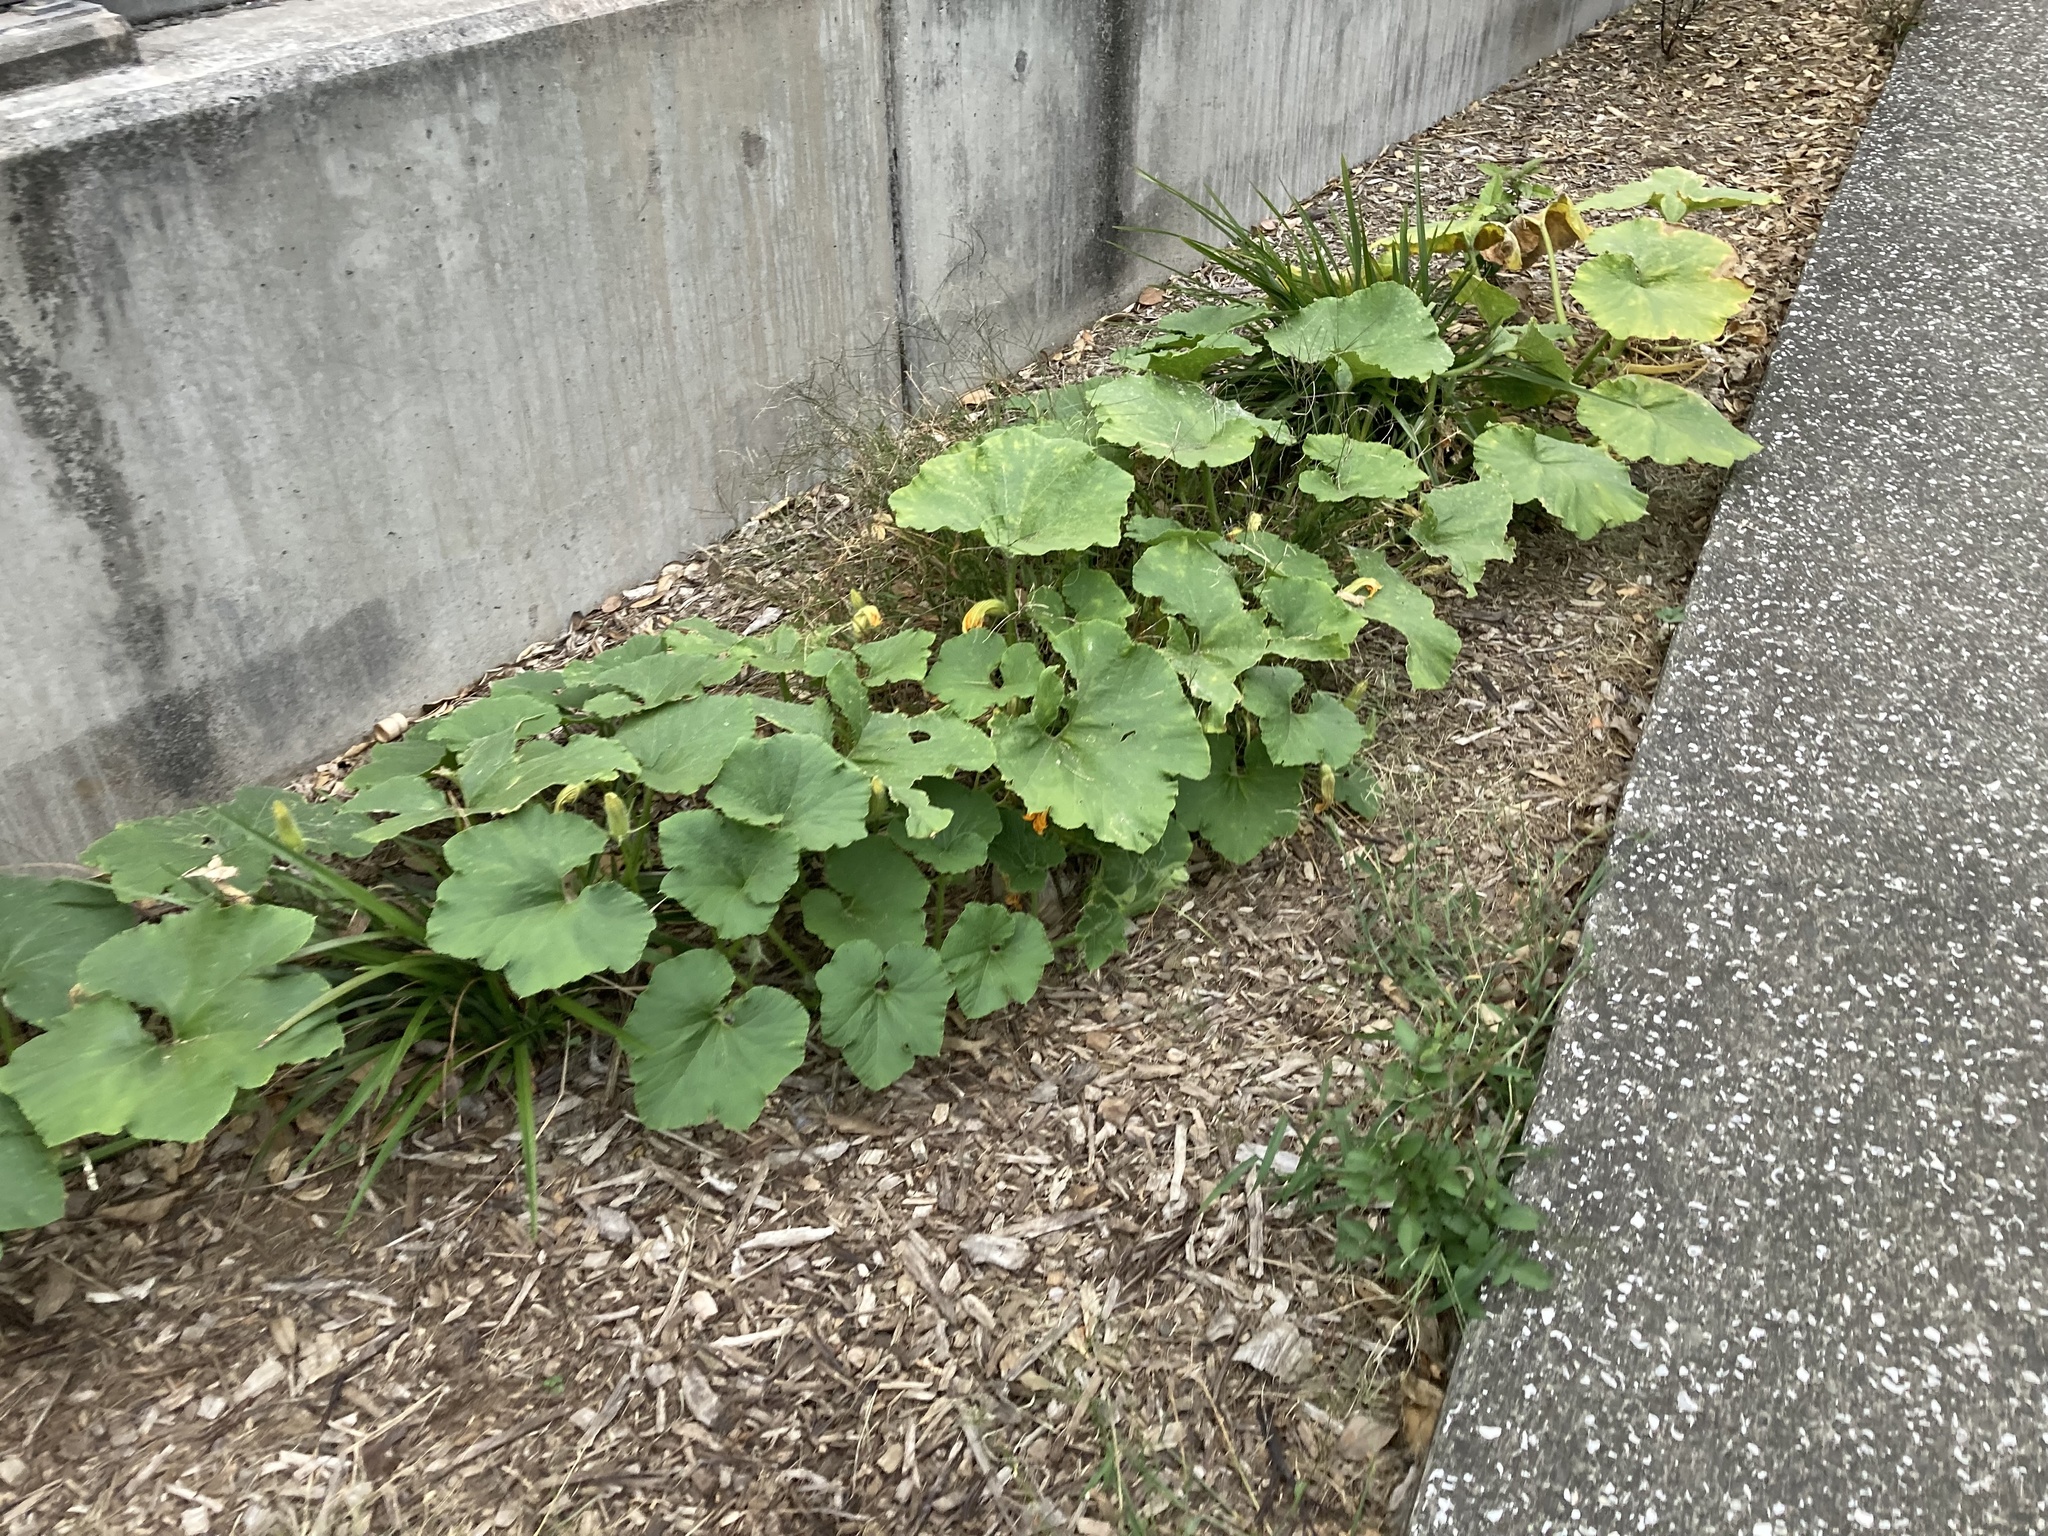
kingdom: Plantae
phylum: Tracheophyta
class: Magnoliopsida
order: Cucurbitales
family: Cucurbitaceae
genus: Cucurbita
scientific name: Cucurbita maxima
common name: Pumpkin
